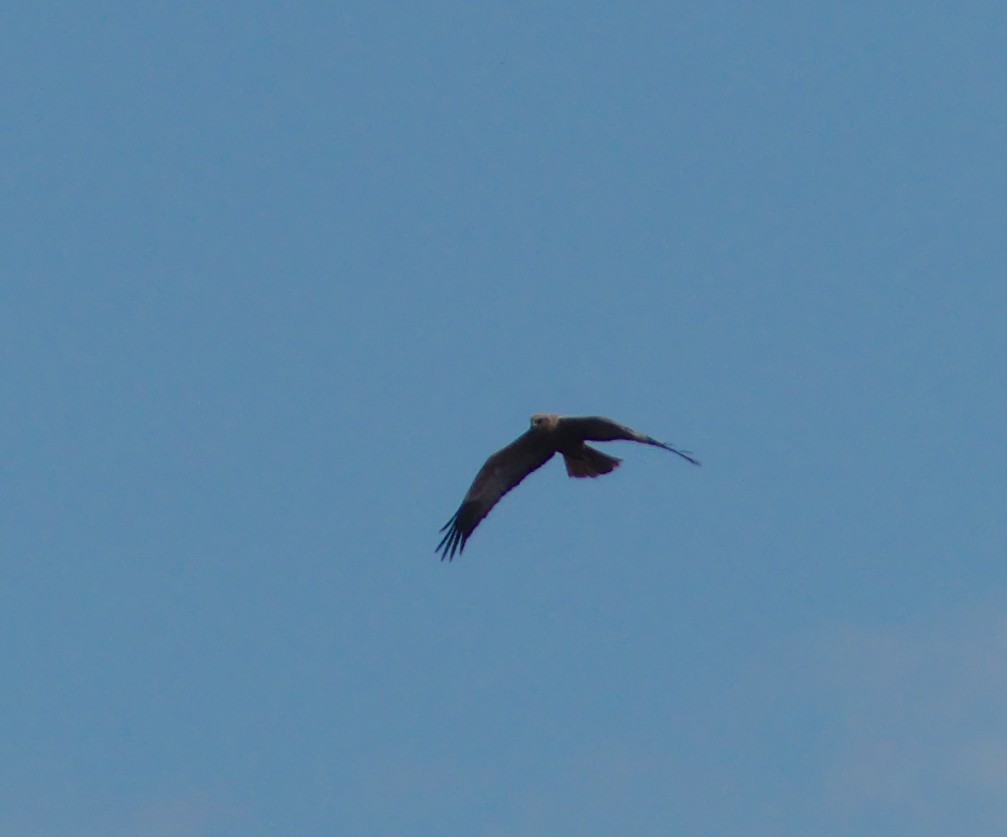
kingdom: Animalia
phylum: Chordata
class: Aves
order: Accipitriformes
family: Accipitridae
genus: Circus
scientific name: Circus aeruginosus
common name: Western marsh harrier
